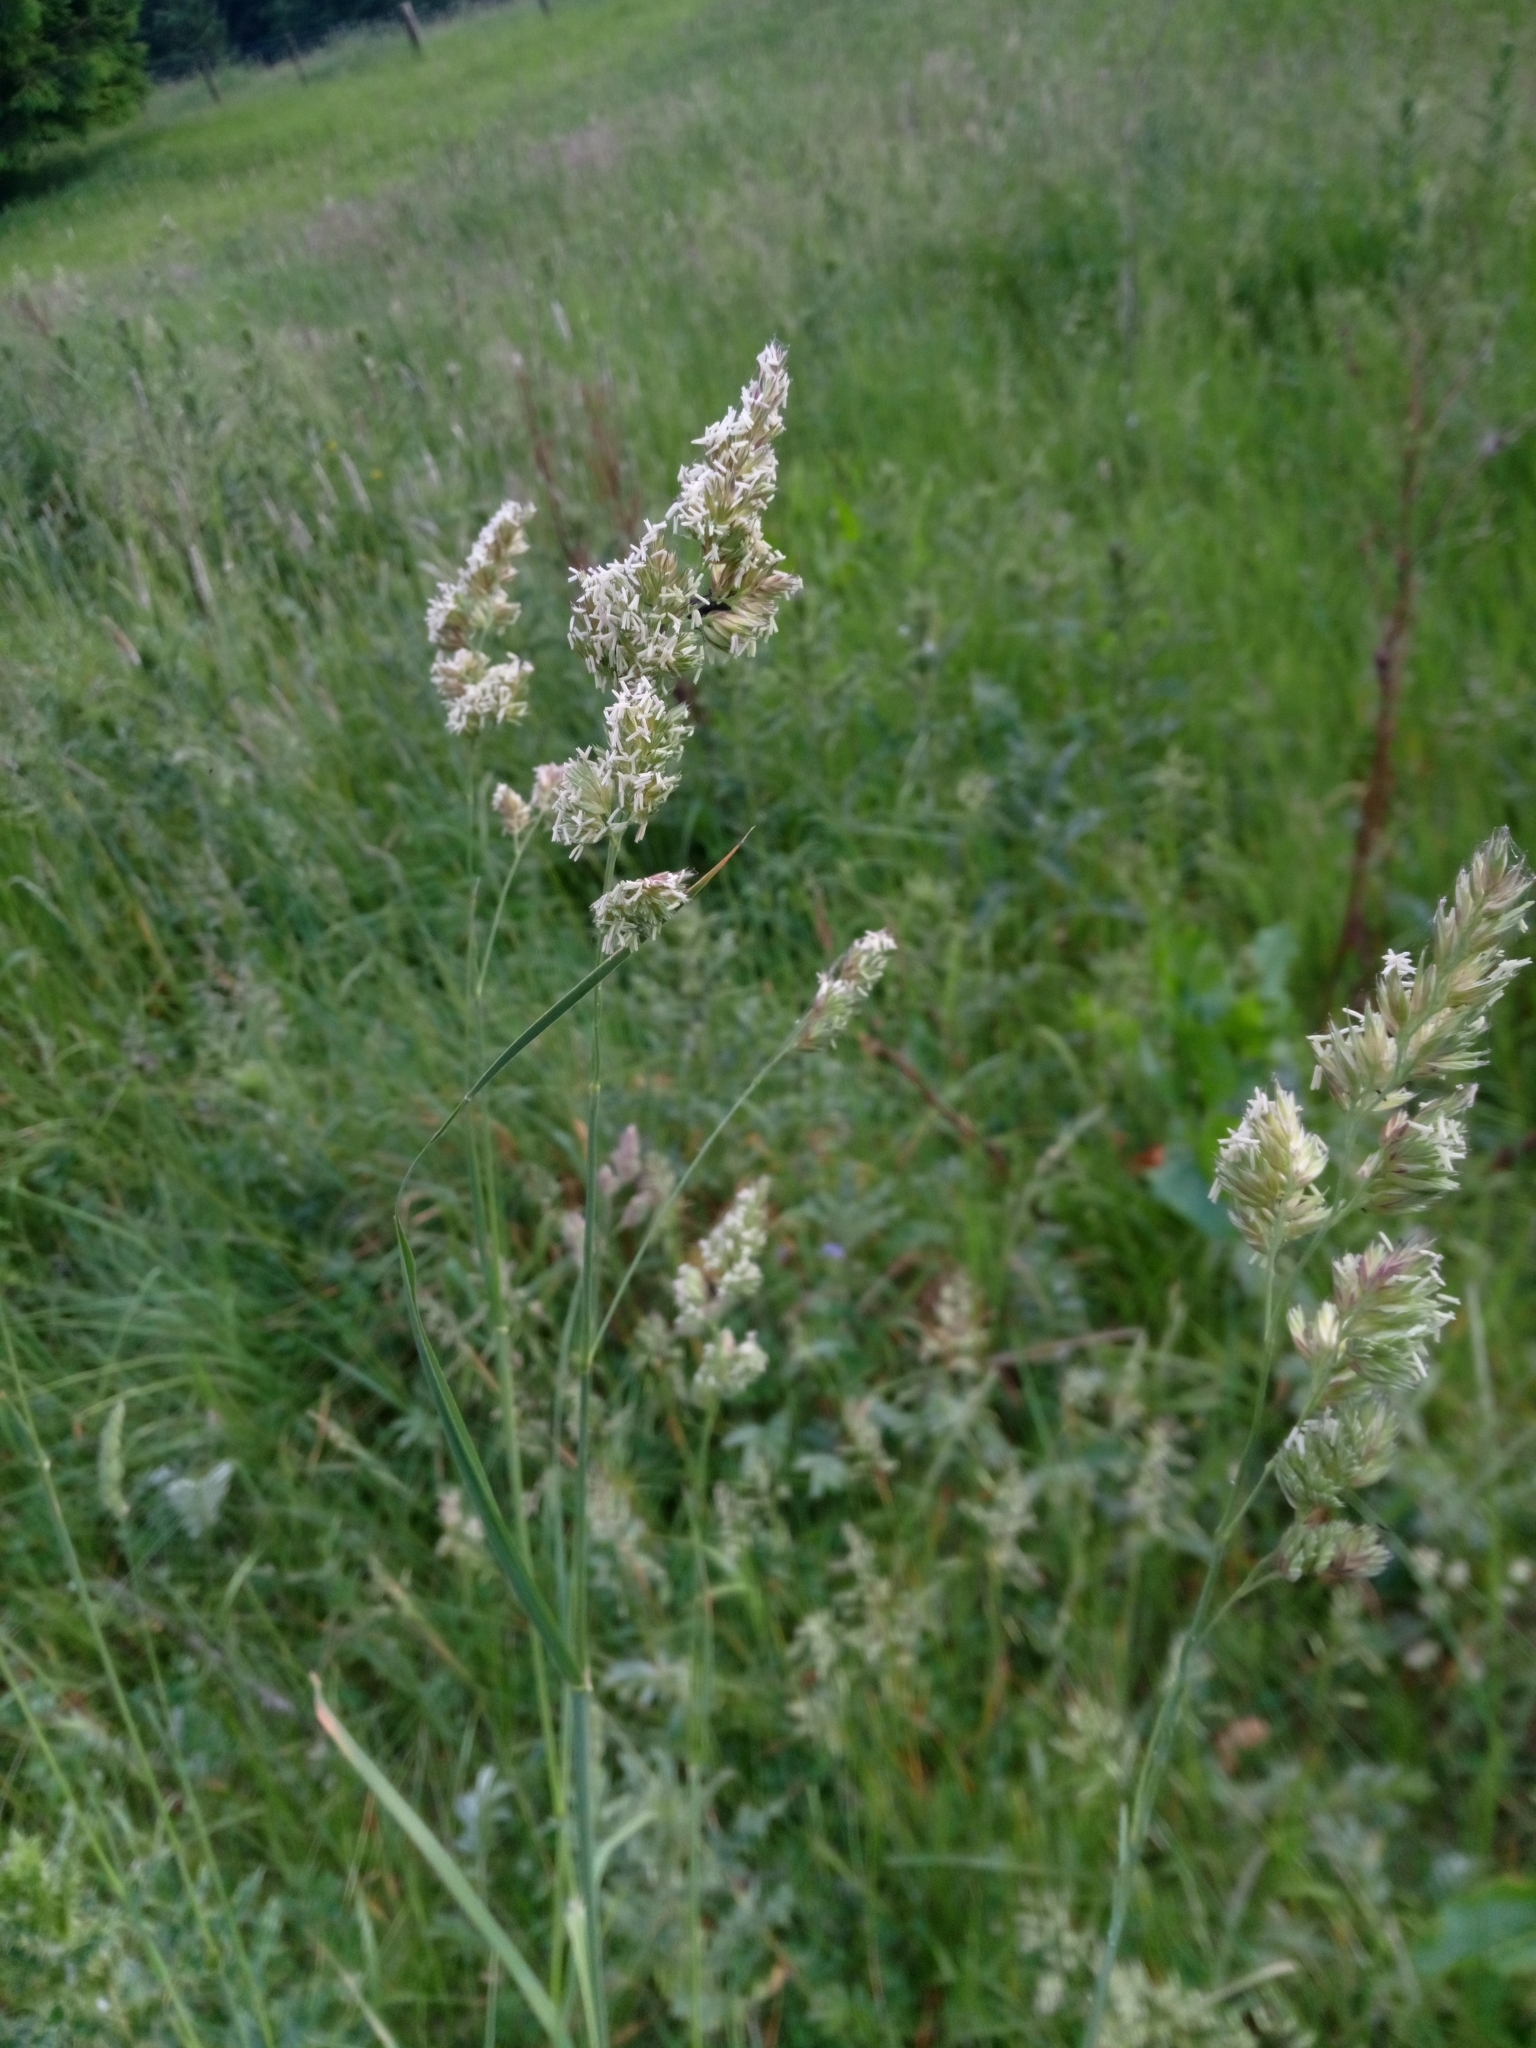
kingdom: Plantae
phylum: Tracheophyta
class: Liliopsida
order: Poales
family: Poaceae
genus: Dactylis
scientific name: Dactylis glomerata
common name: Orchardgrass
